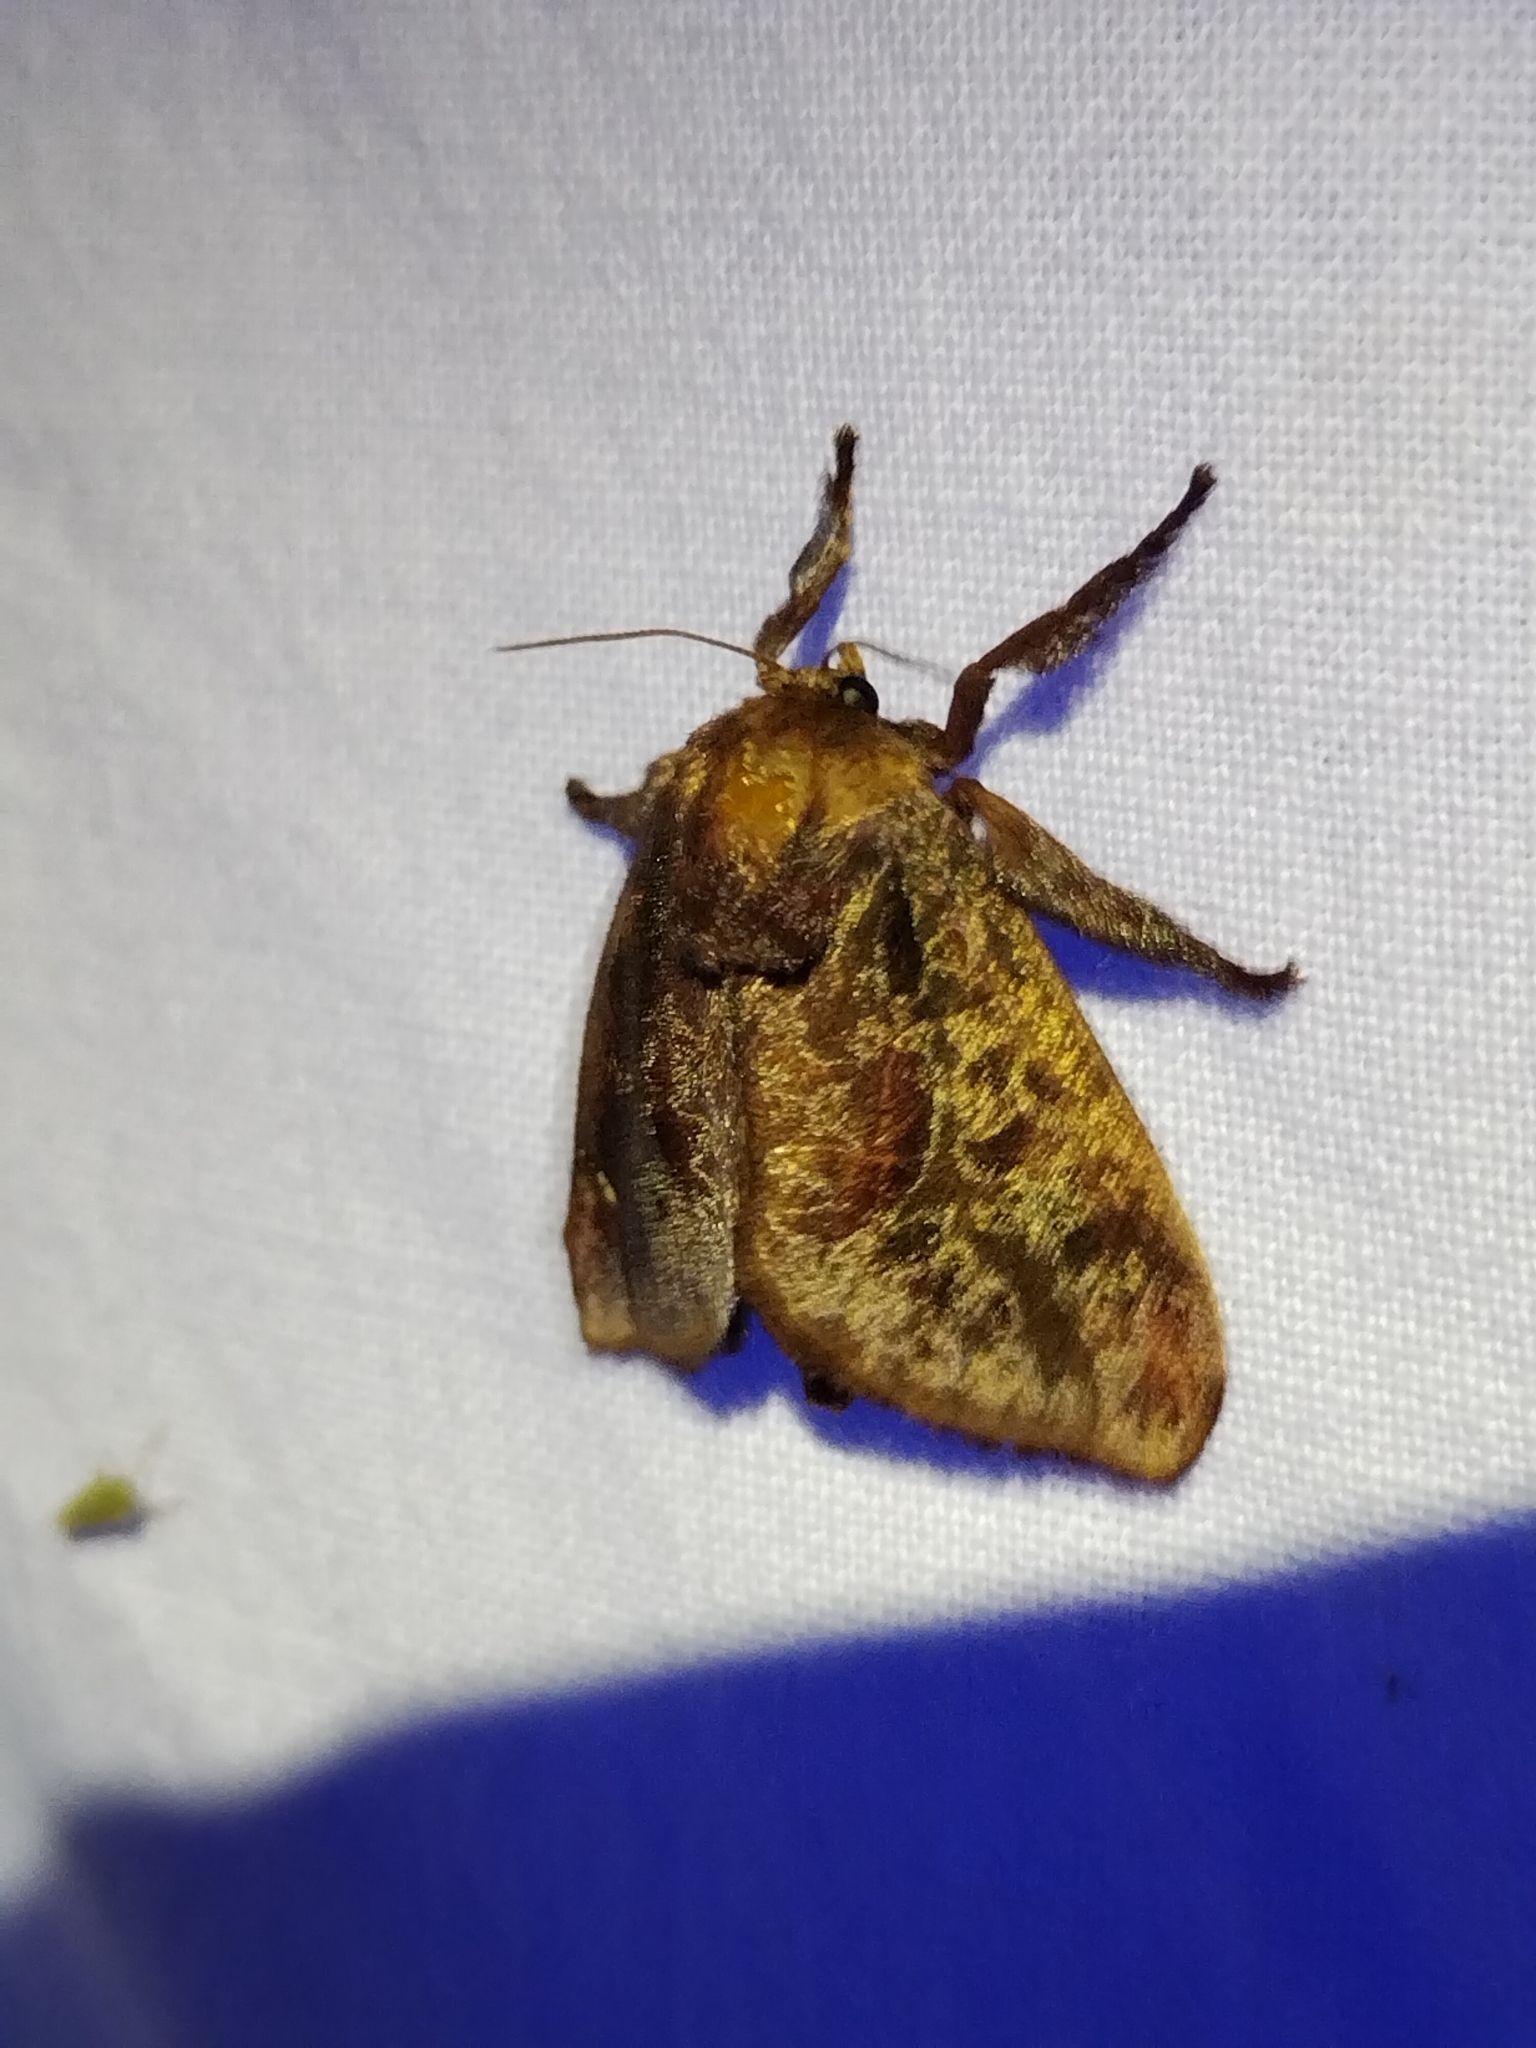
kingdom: Animalia
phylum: Arthropoda
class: Insecta
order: Lepidoptera
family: Limacodidae
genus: Acharia
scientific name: Acharia stimulea
